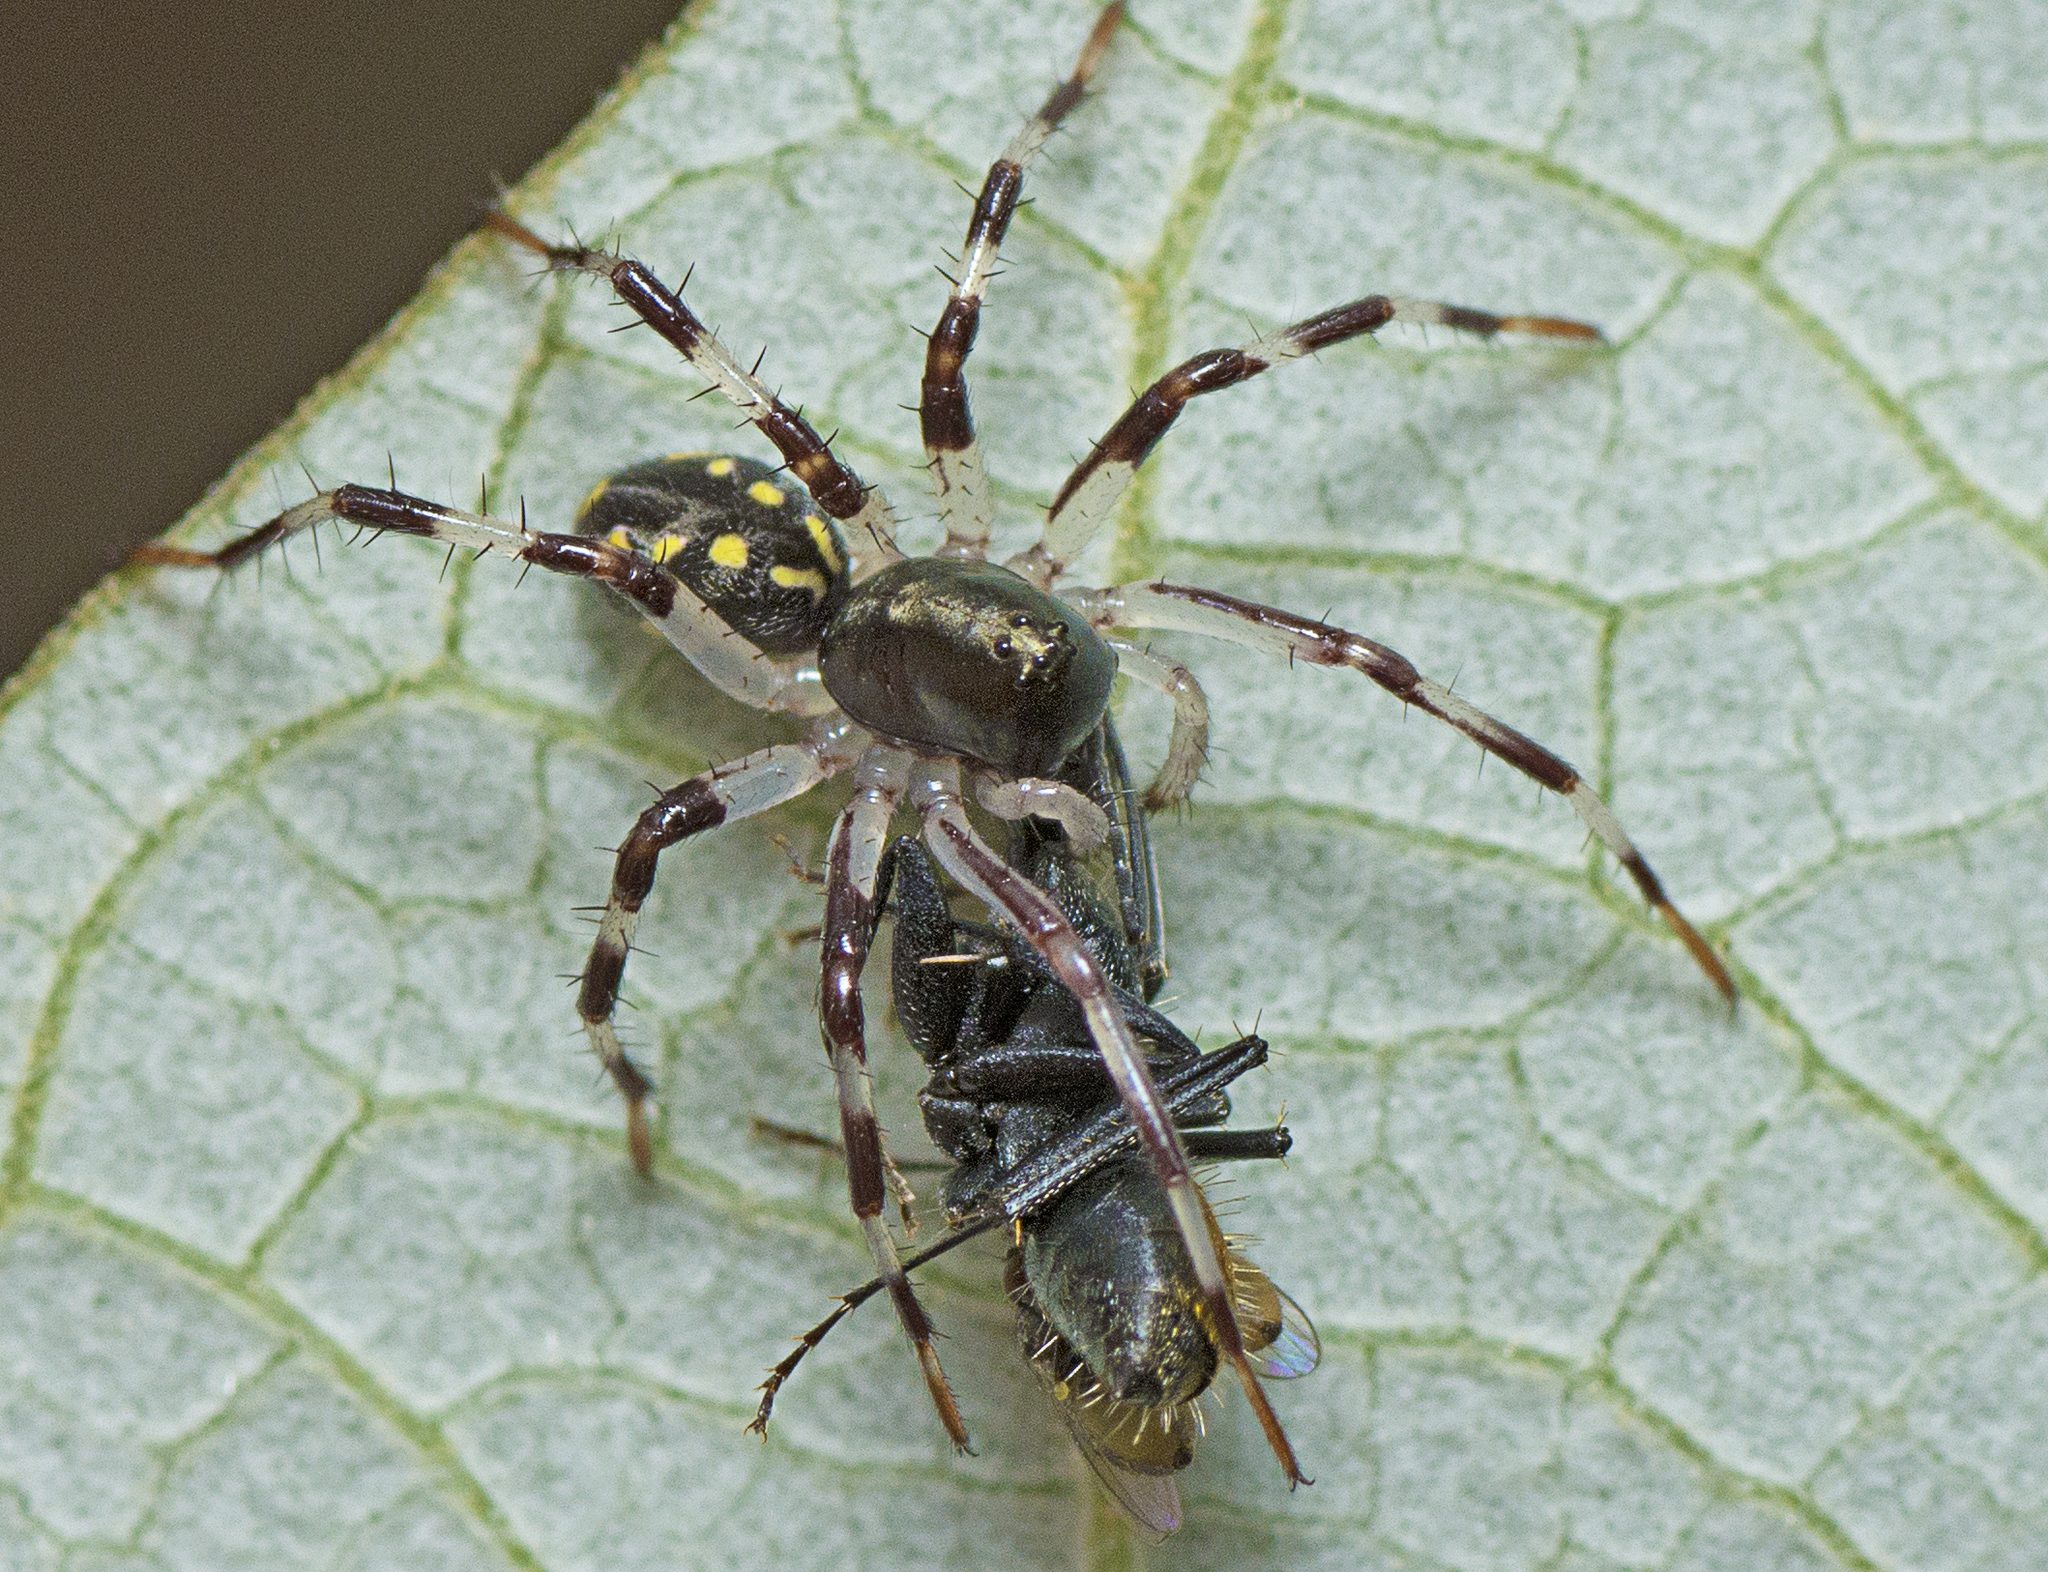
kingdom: Animalia
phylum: Arthropoda
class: Arachnida
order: Araneae
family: Zodariidae
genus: Subasteron
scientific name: Subasteron daviesae
